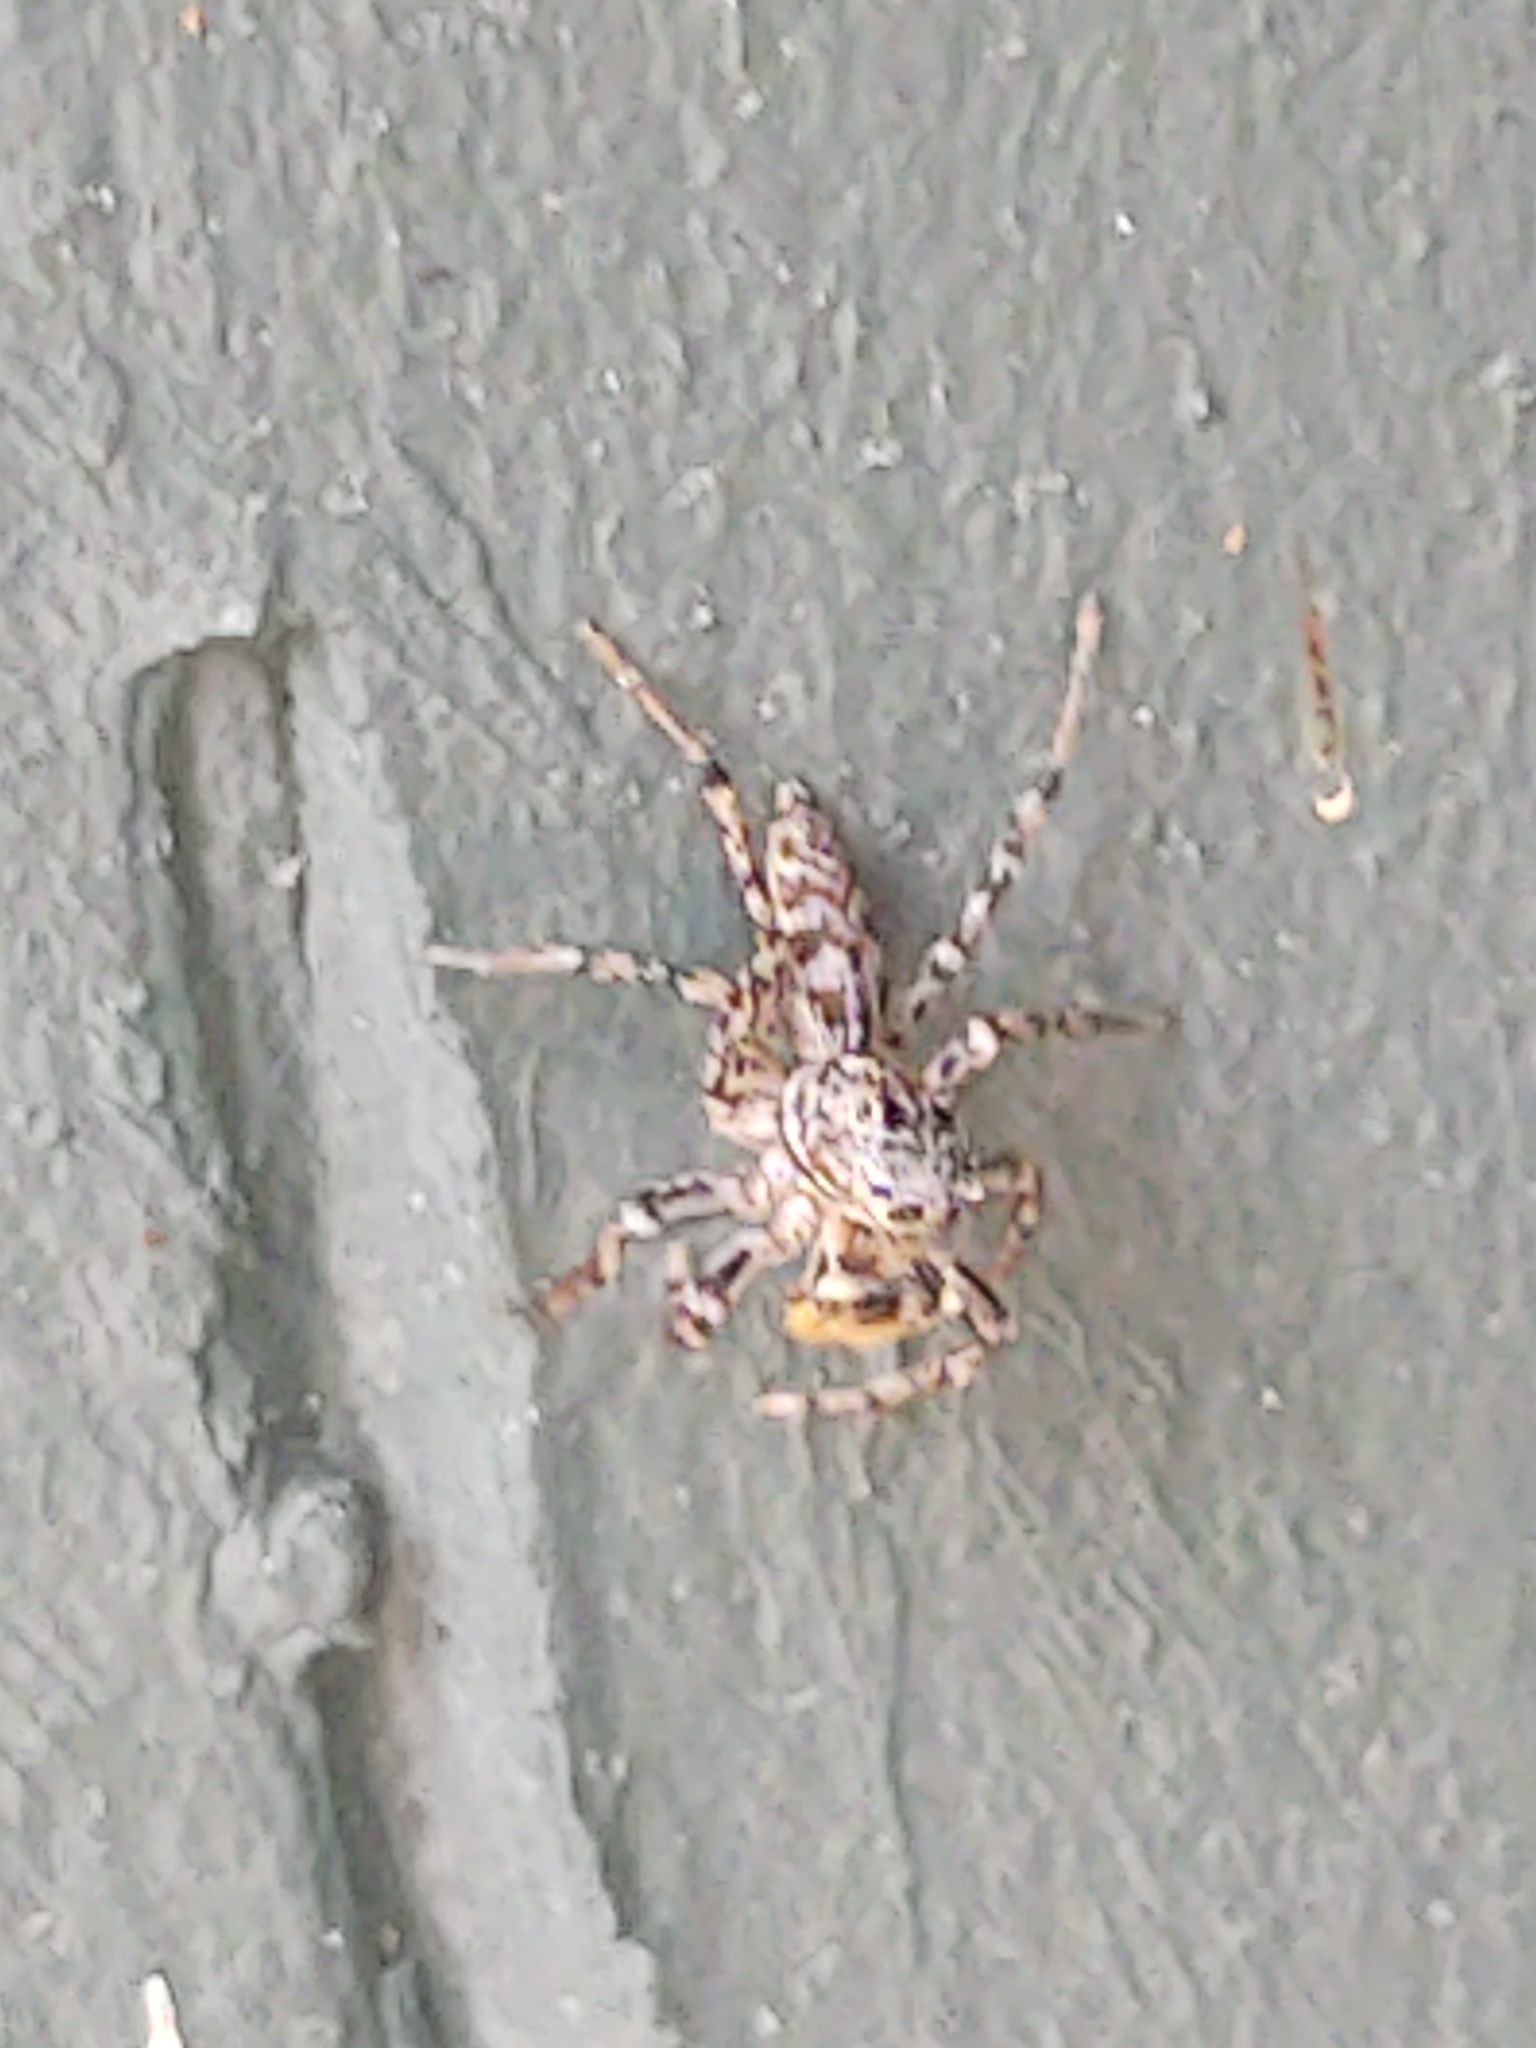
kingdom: Animalia
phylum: Arthropoda
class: Arachnida
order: Araneae
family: Salticidae
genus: Maevia
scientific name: Maevia inclemens
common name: Dimorphic jumper
